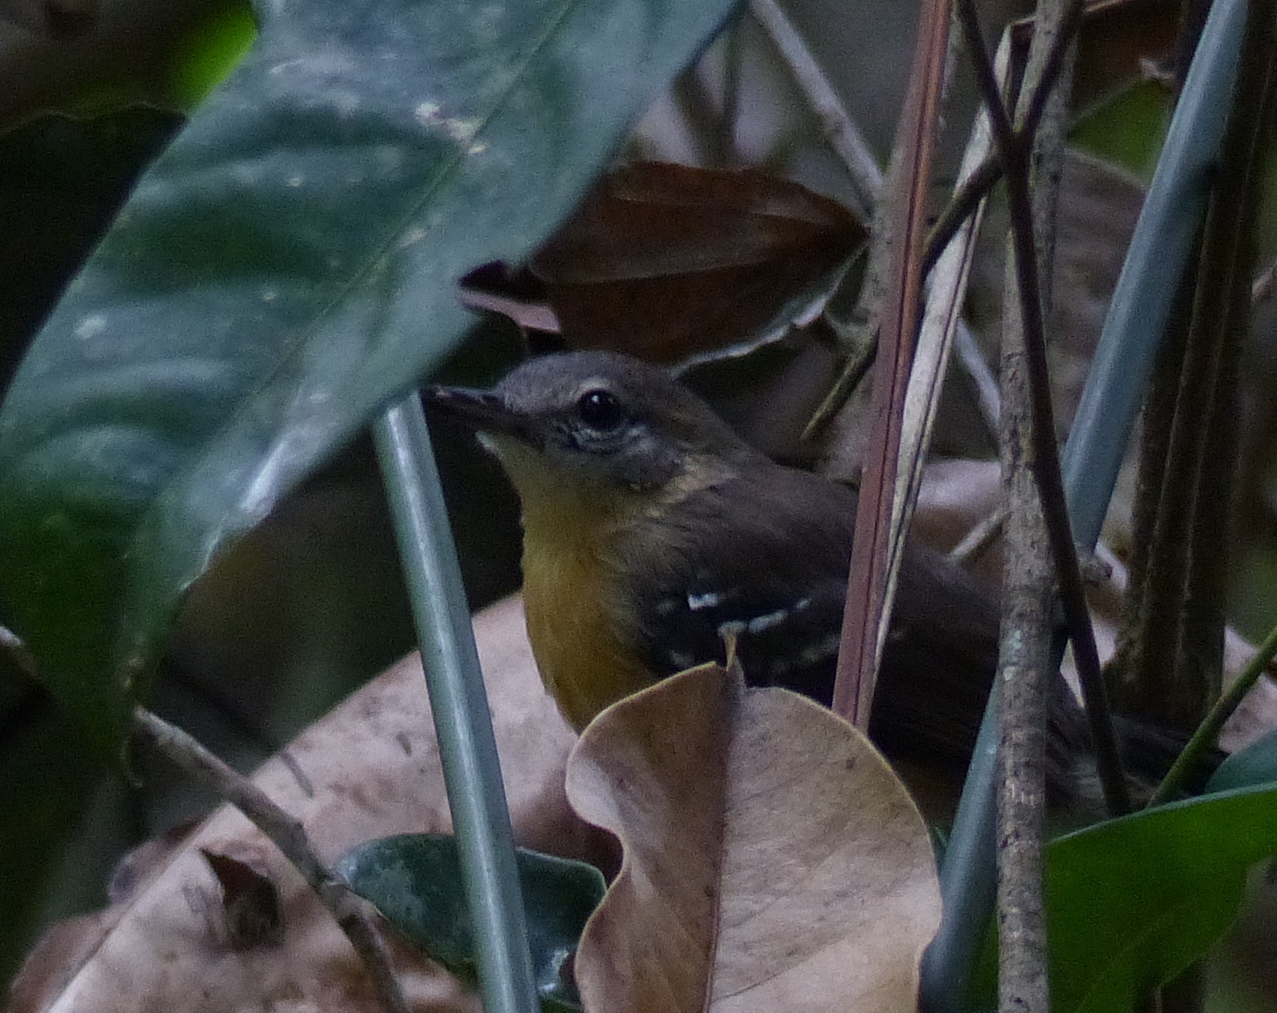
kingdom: Animalia
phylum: Chordata
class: Aves
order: Passeriformes
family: Thamnophilidae
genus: Formicivora
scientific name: Formicivora grisea
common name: Southern white-fringed antwren
